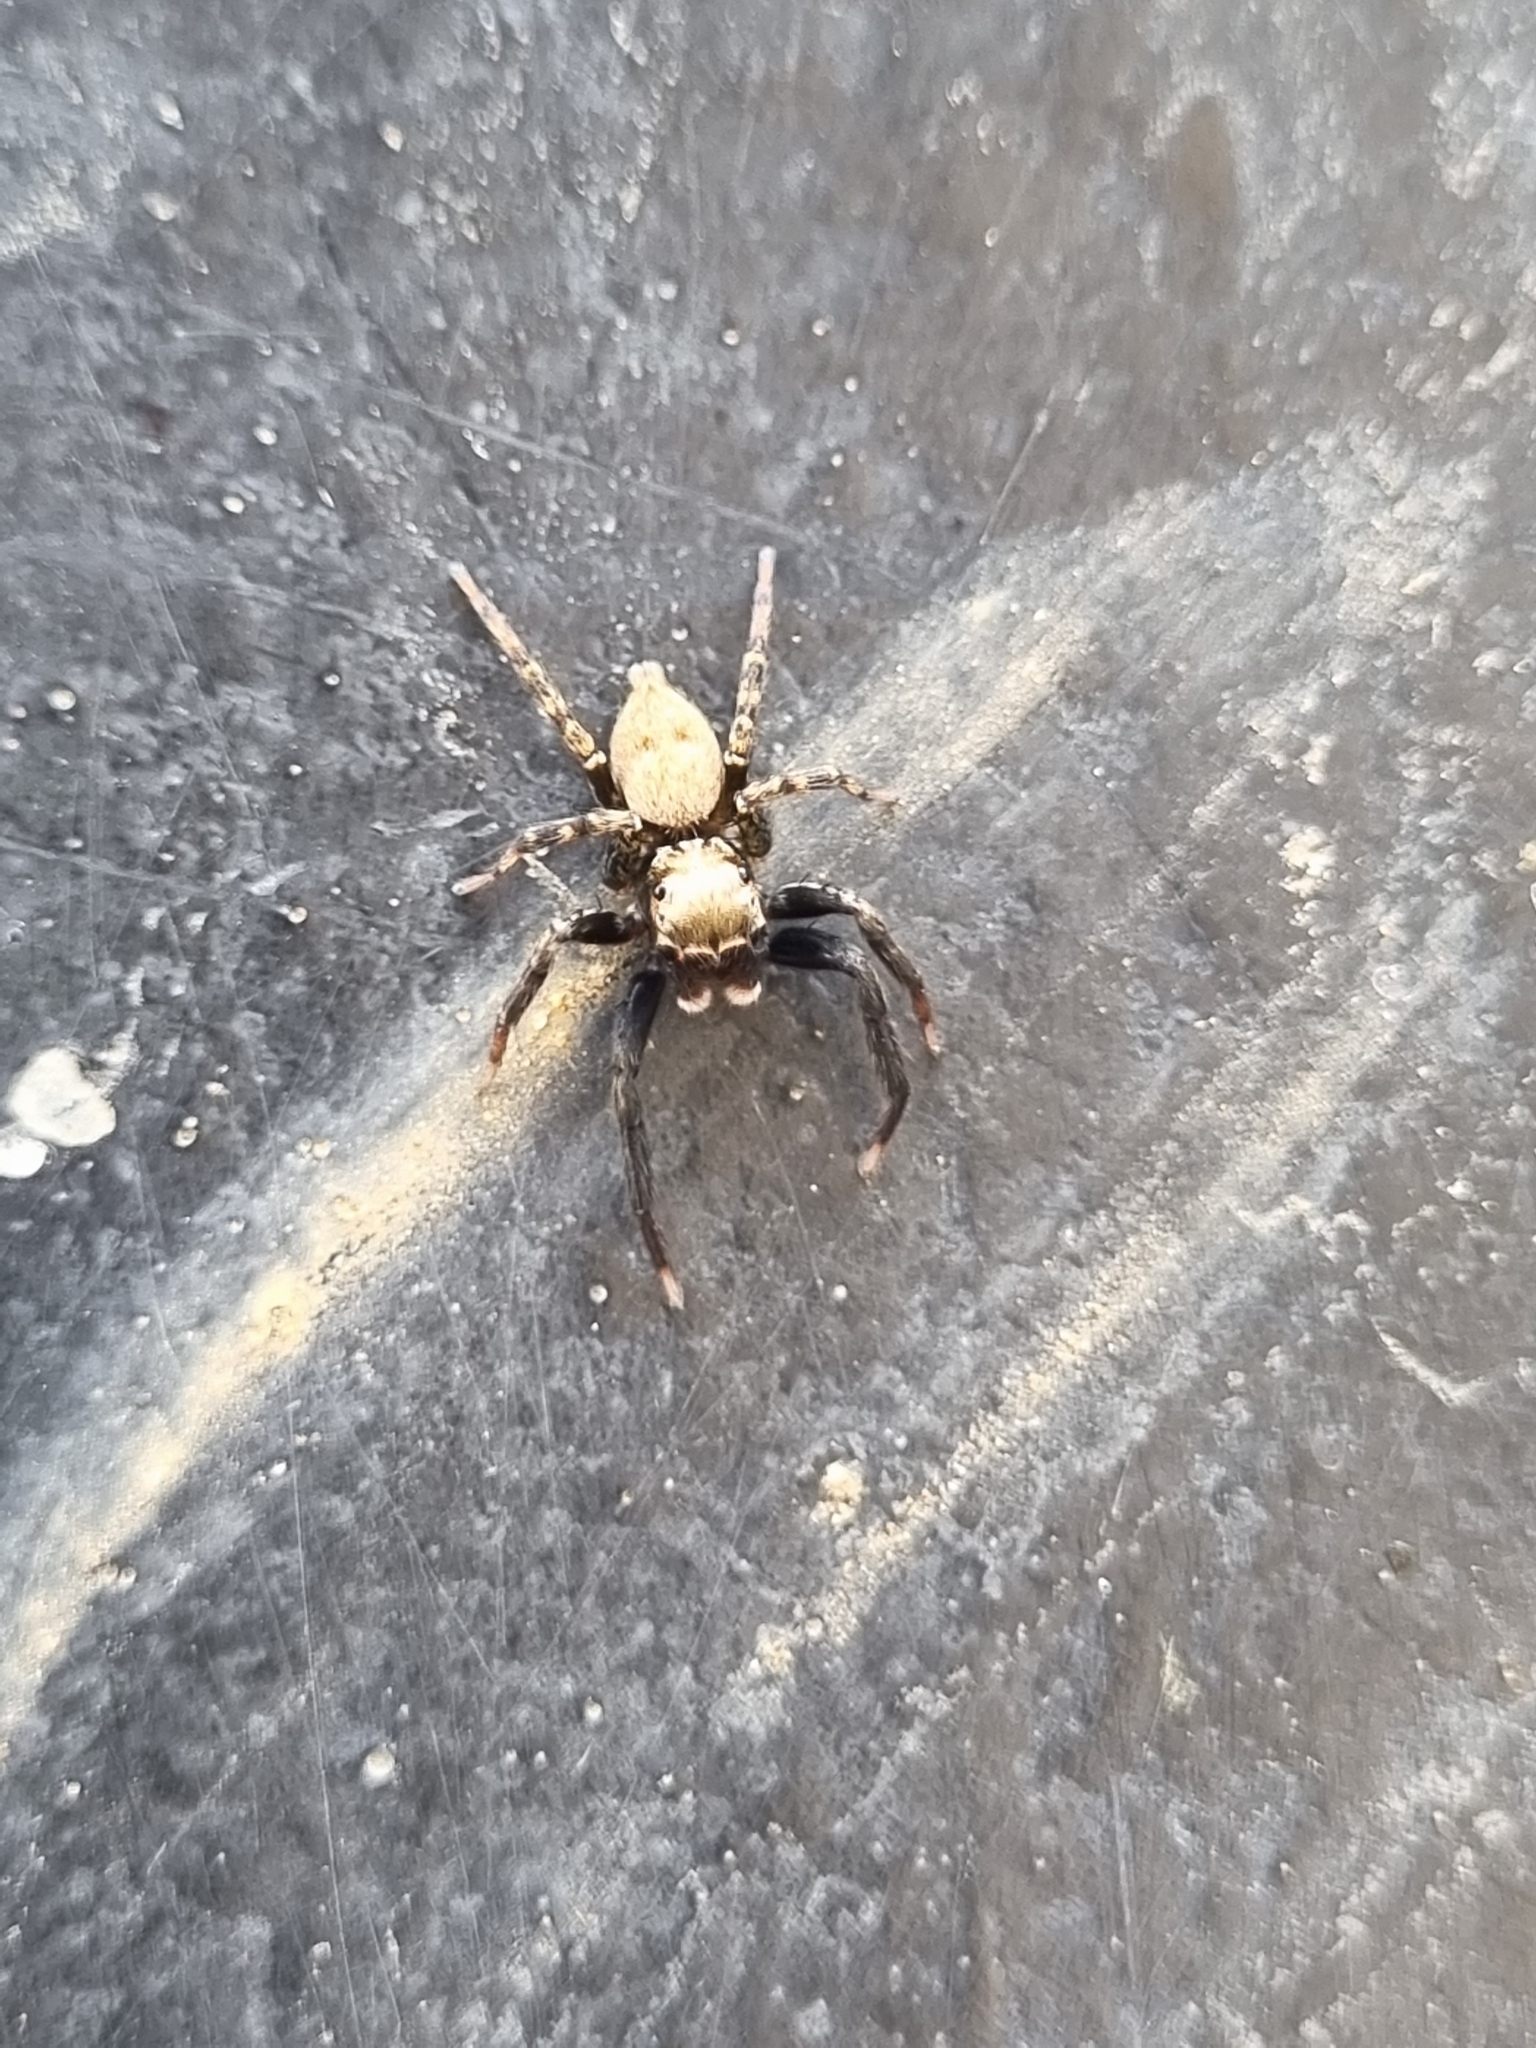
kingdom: Animalia
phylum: Arthropoda
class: Arachnida
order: Araneae
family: Salticidae
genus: Coryphasia
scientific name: Coryphasia nigriventris
